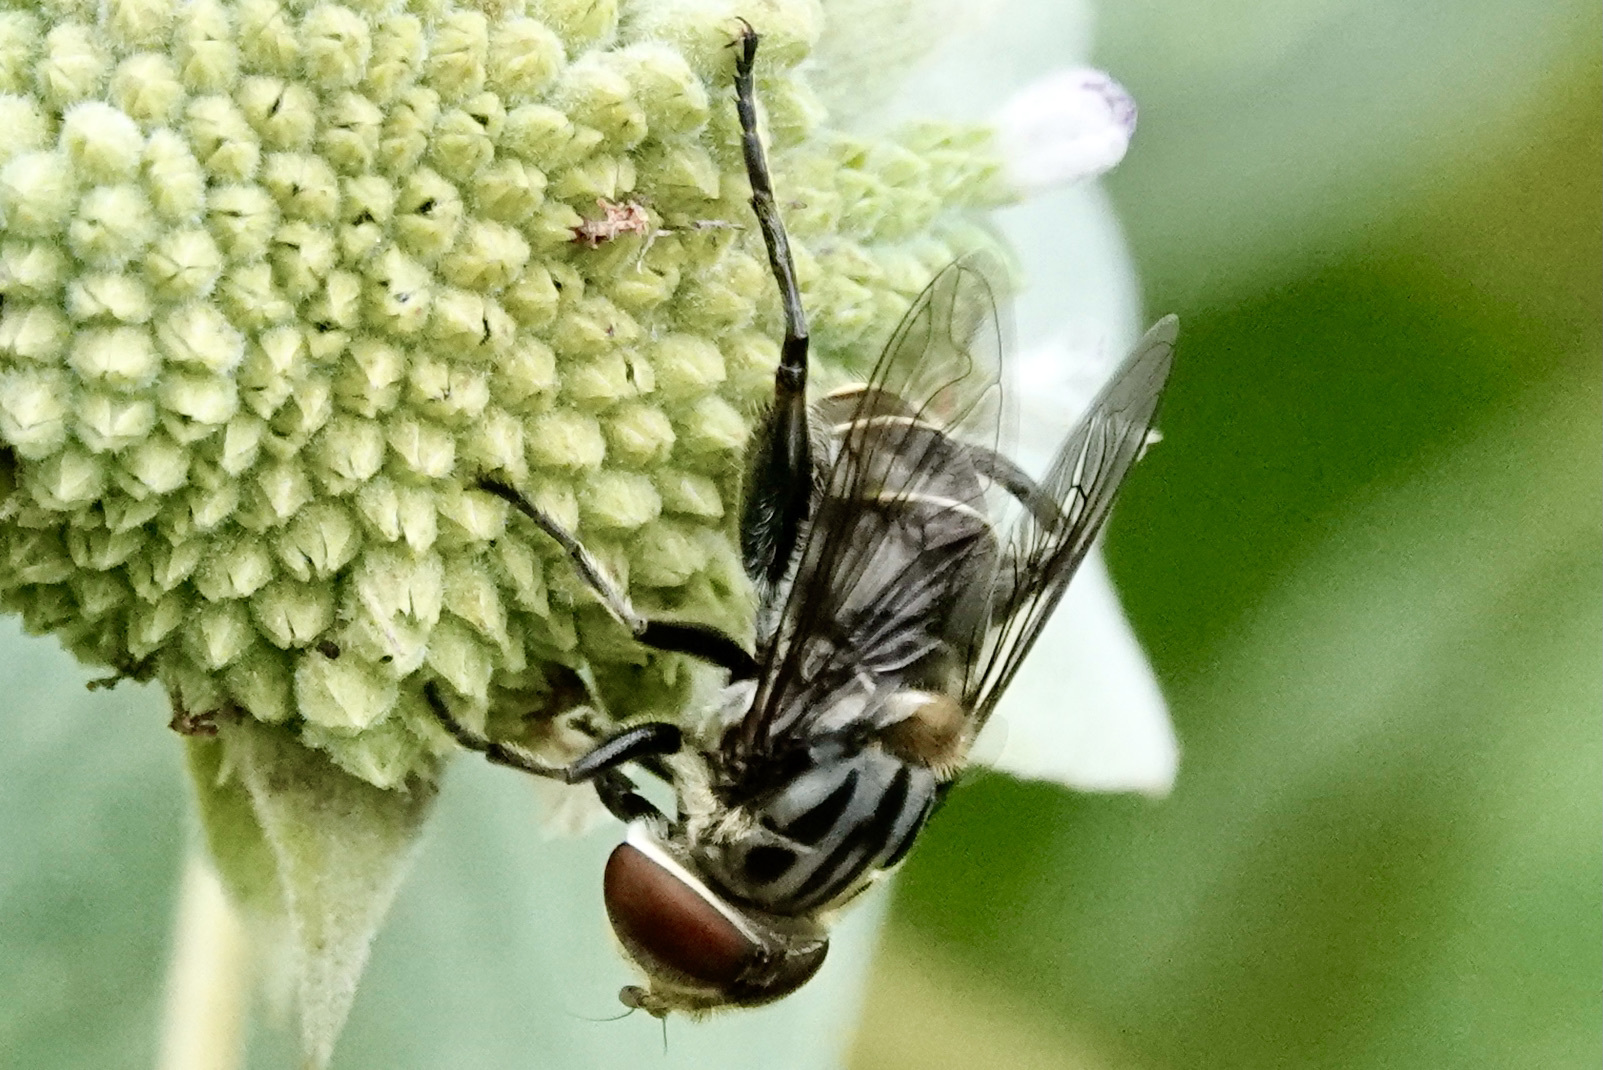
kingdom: Animalia
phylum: Arthropoda
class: Insecta
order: Diptera
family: Syrphidae
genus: Palpada
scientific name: Palpada furcata
